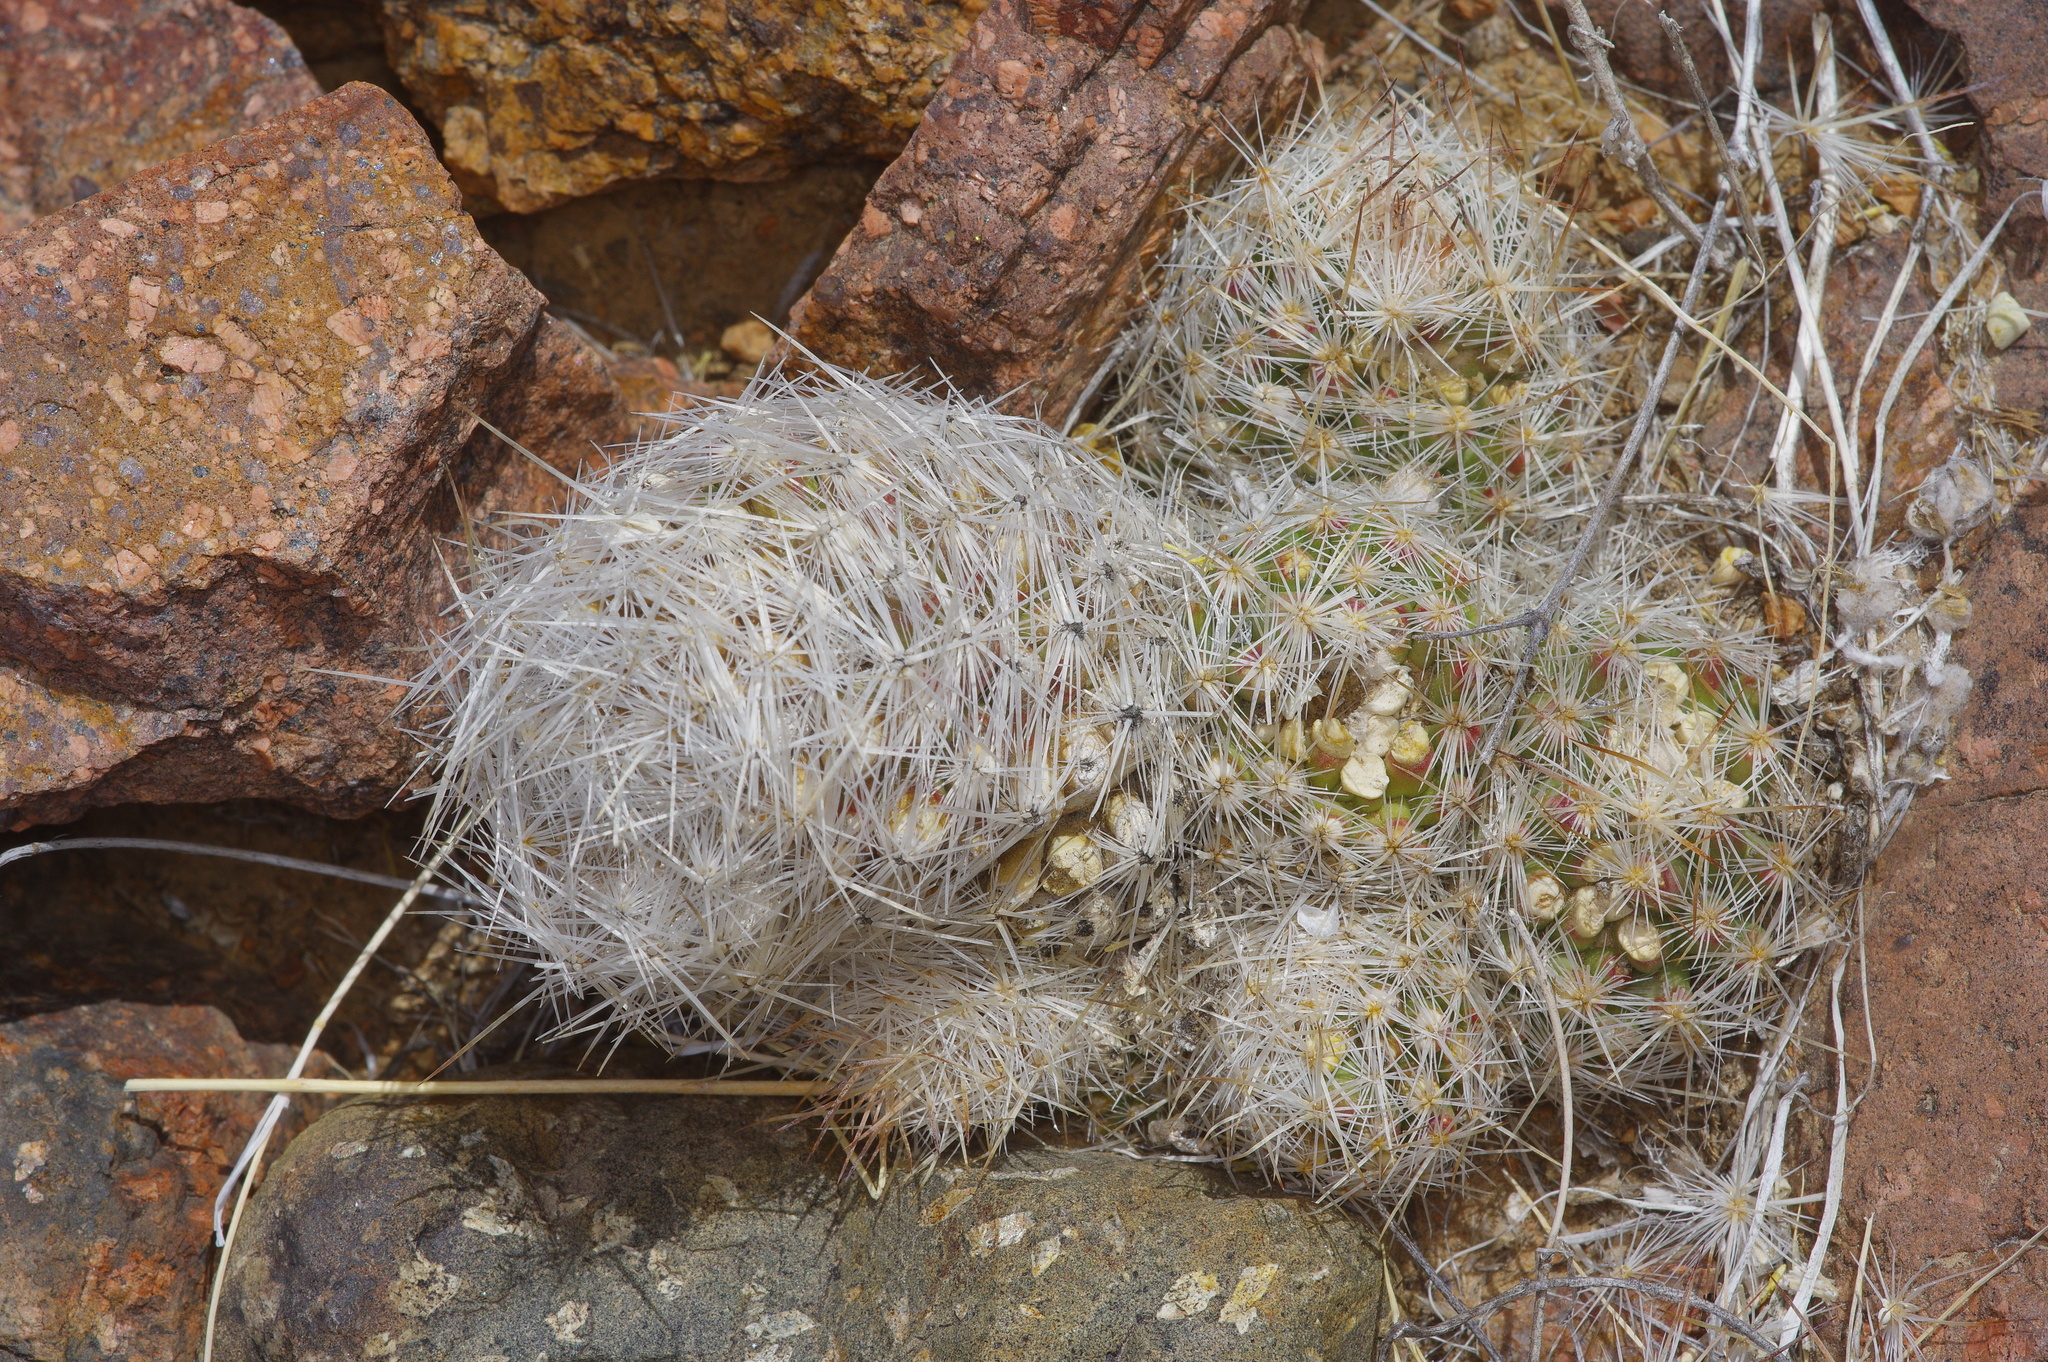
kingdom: Plantae
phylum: Tracheophyta
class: Magnoliopsida
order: Caryophyllales
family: Cactaceae
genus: Pelecyphora
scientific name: Pelecyphora tuberculosa
